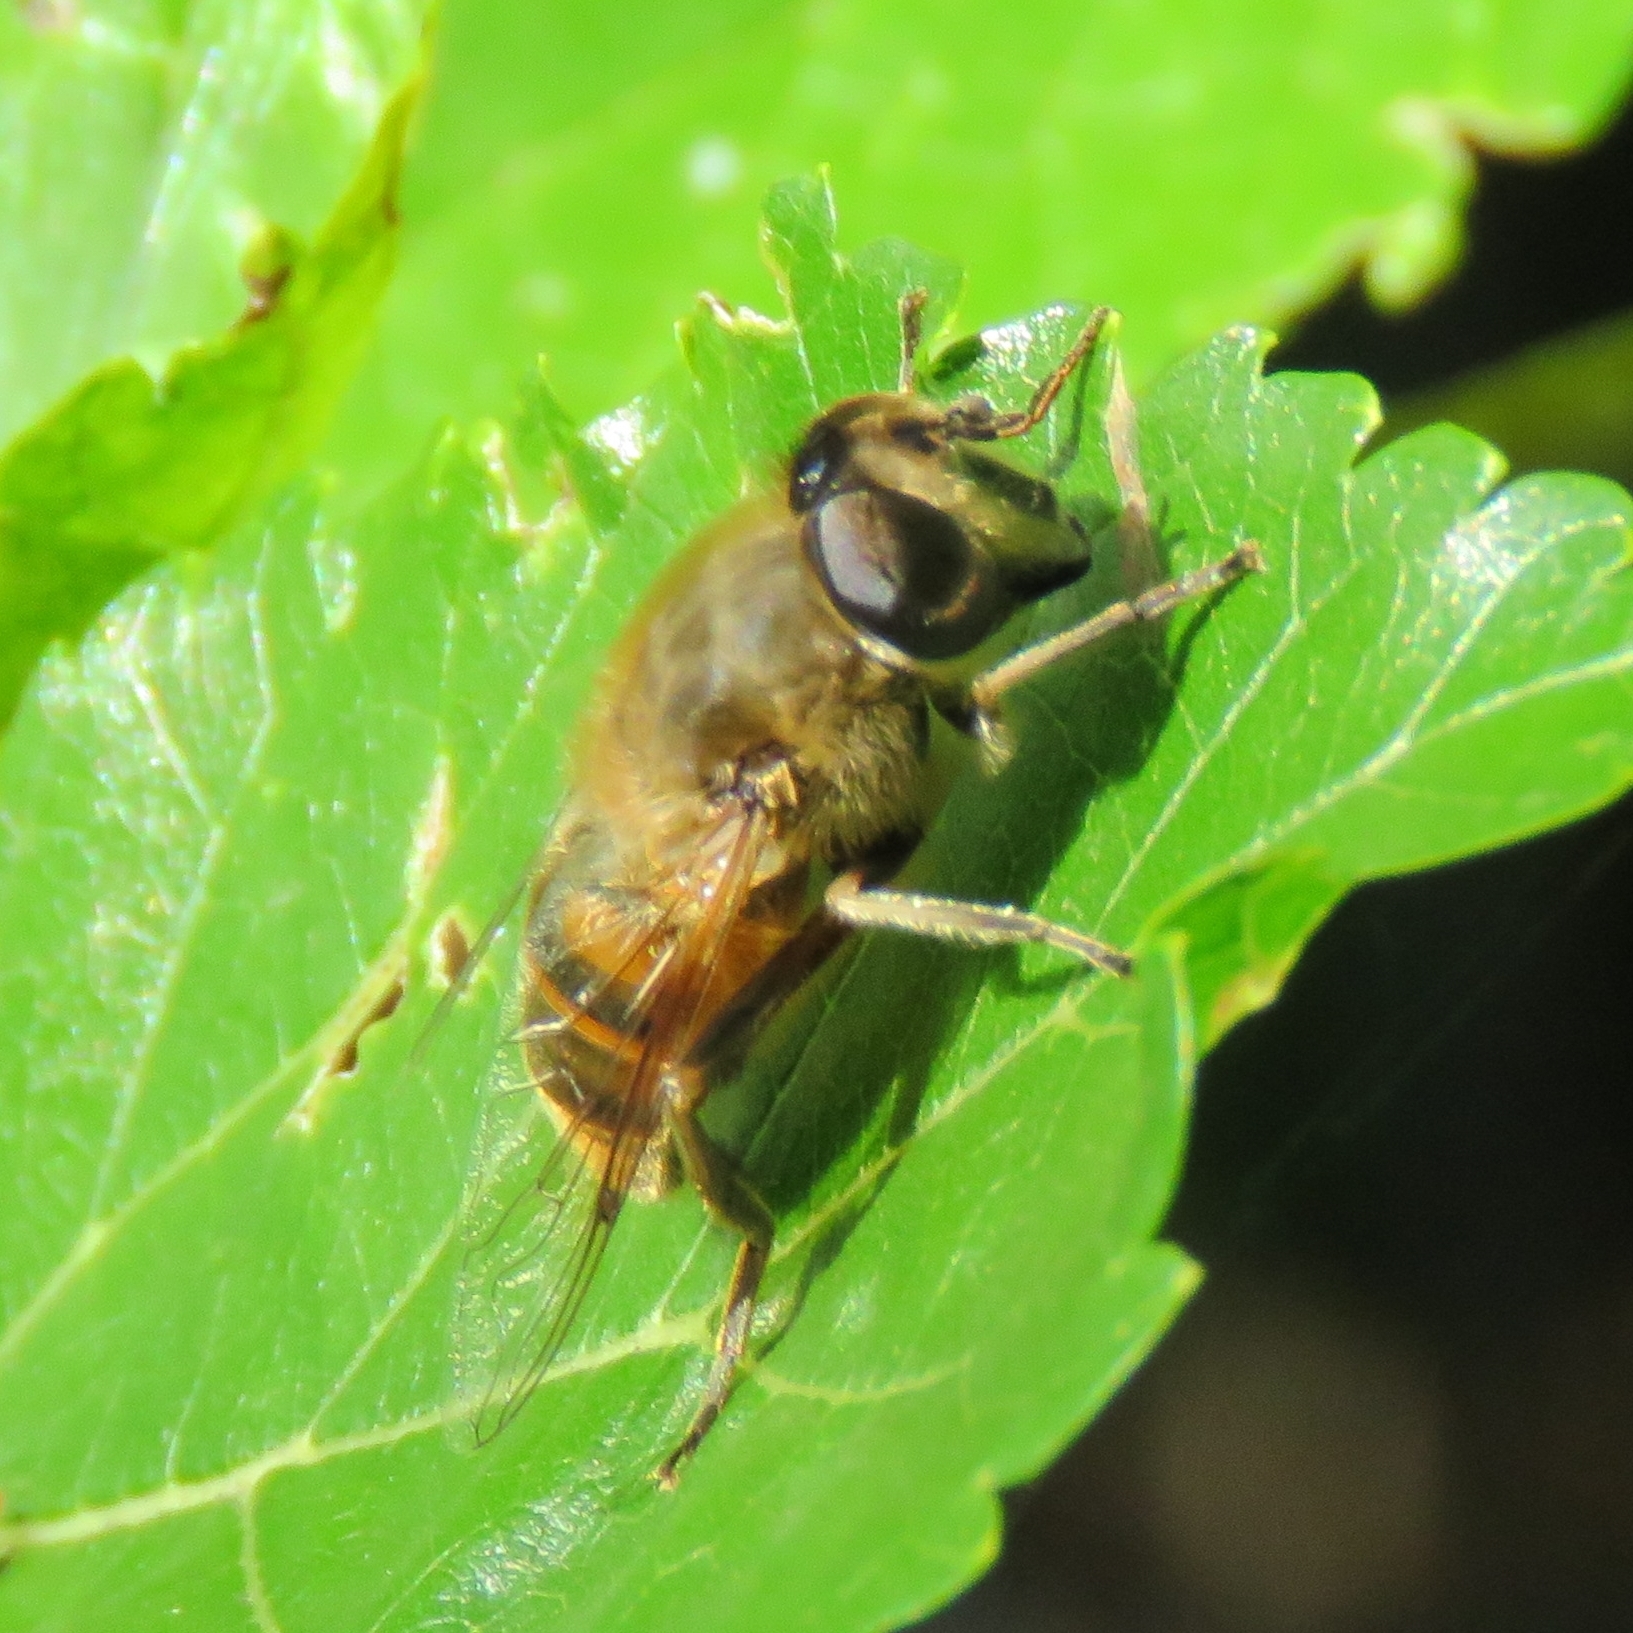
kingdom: Animalia
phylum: Arthropoda
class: Insecta
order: Diptera
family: Syrphidae
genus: Eristalis
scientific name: Eristalis tenax
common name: Drone fly
